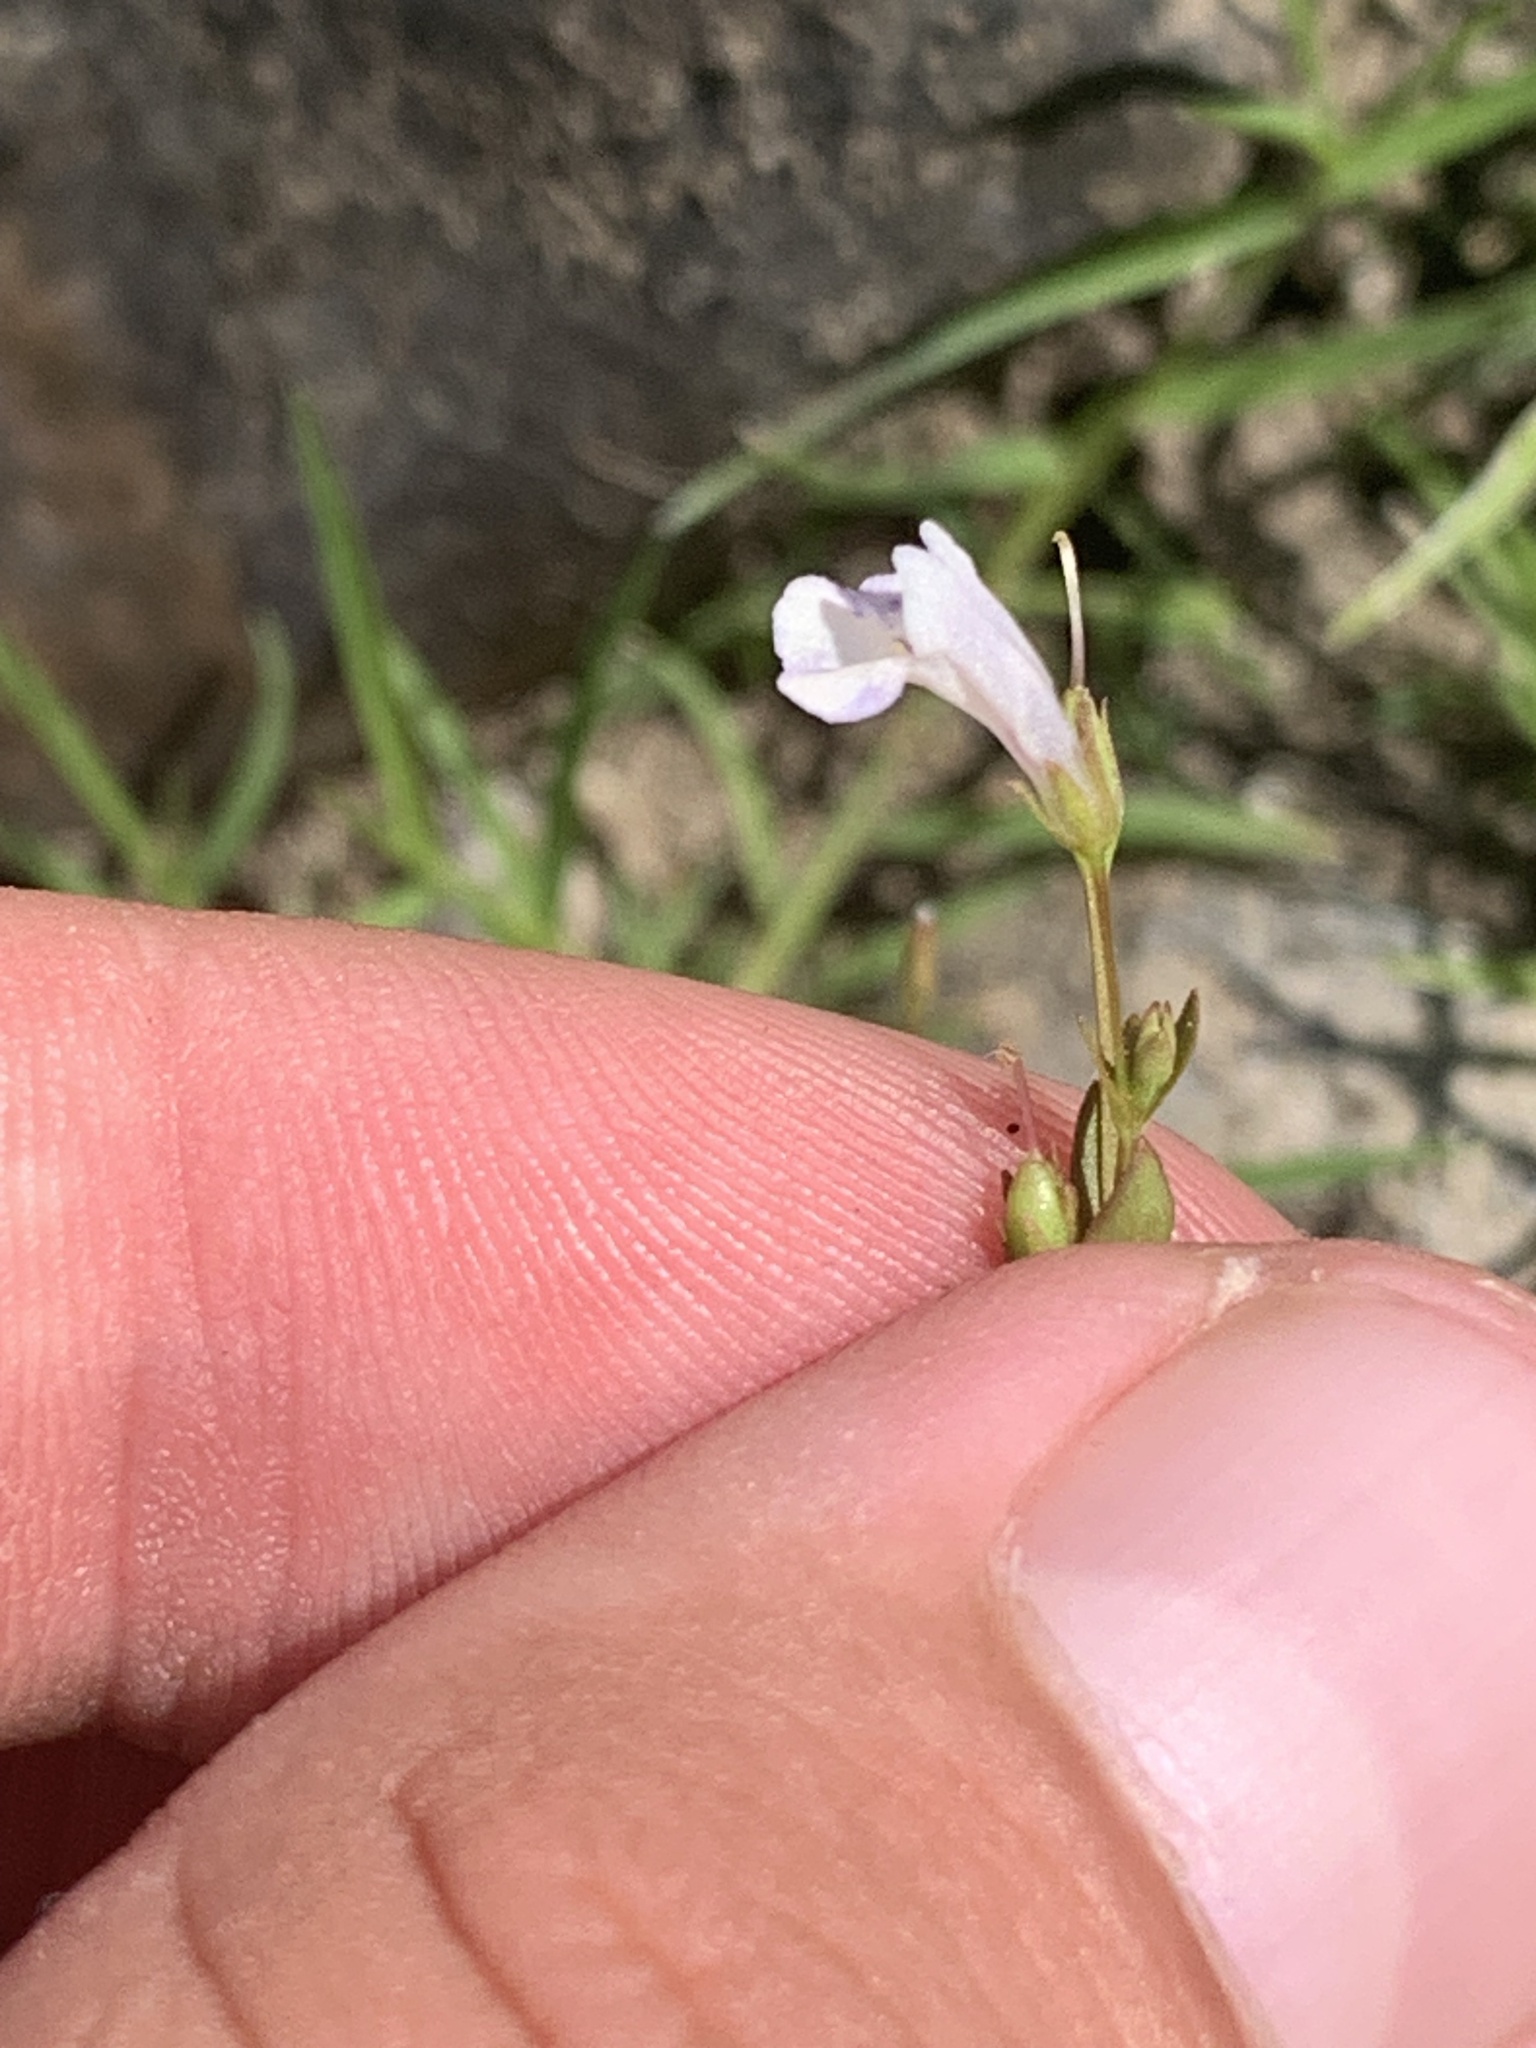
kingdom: Plantae
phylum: Tracheophyta
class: Magnoliopsida
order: Lamiales
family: Linderniaceae
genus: Lindernia
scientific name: Lindernia dubia
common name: Annual false pimpernel
